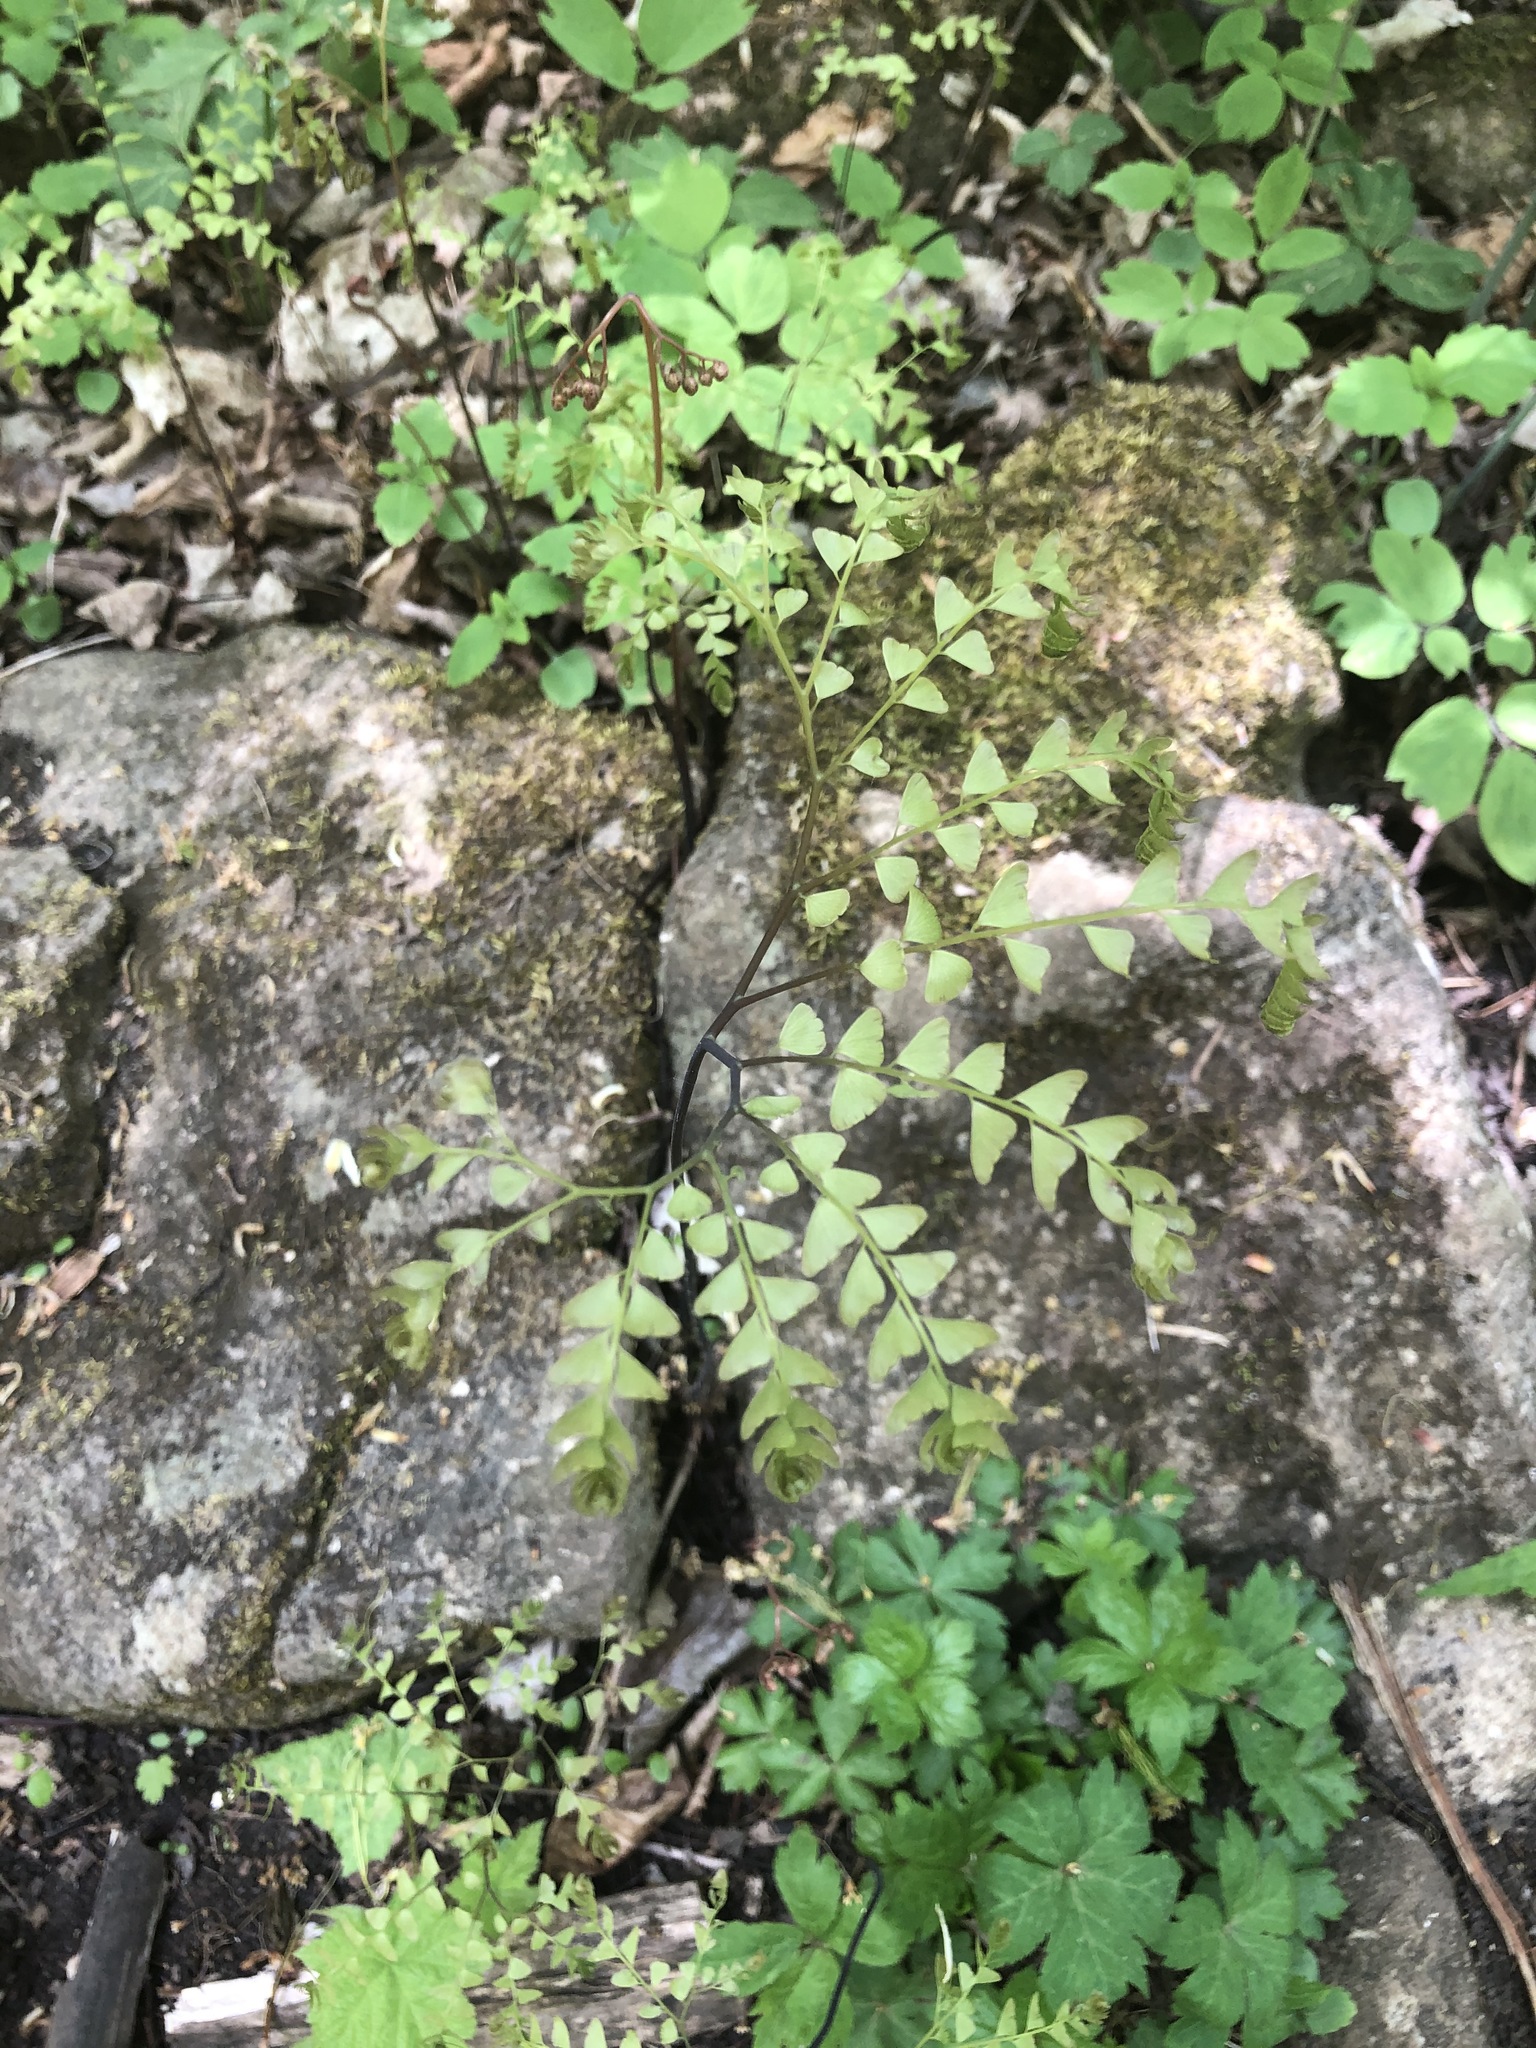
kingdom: Plantae
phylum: Tracheophyta
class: Polypodiopsida
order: Polypodiales
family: Pteridaceae
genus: Adiantum
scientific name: Adiantum pedatum
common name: Five-finger fern
